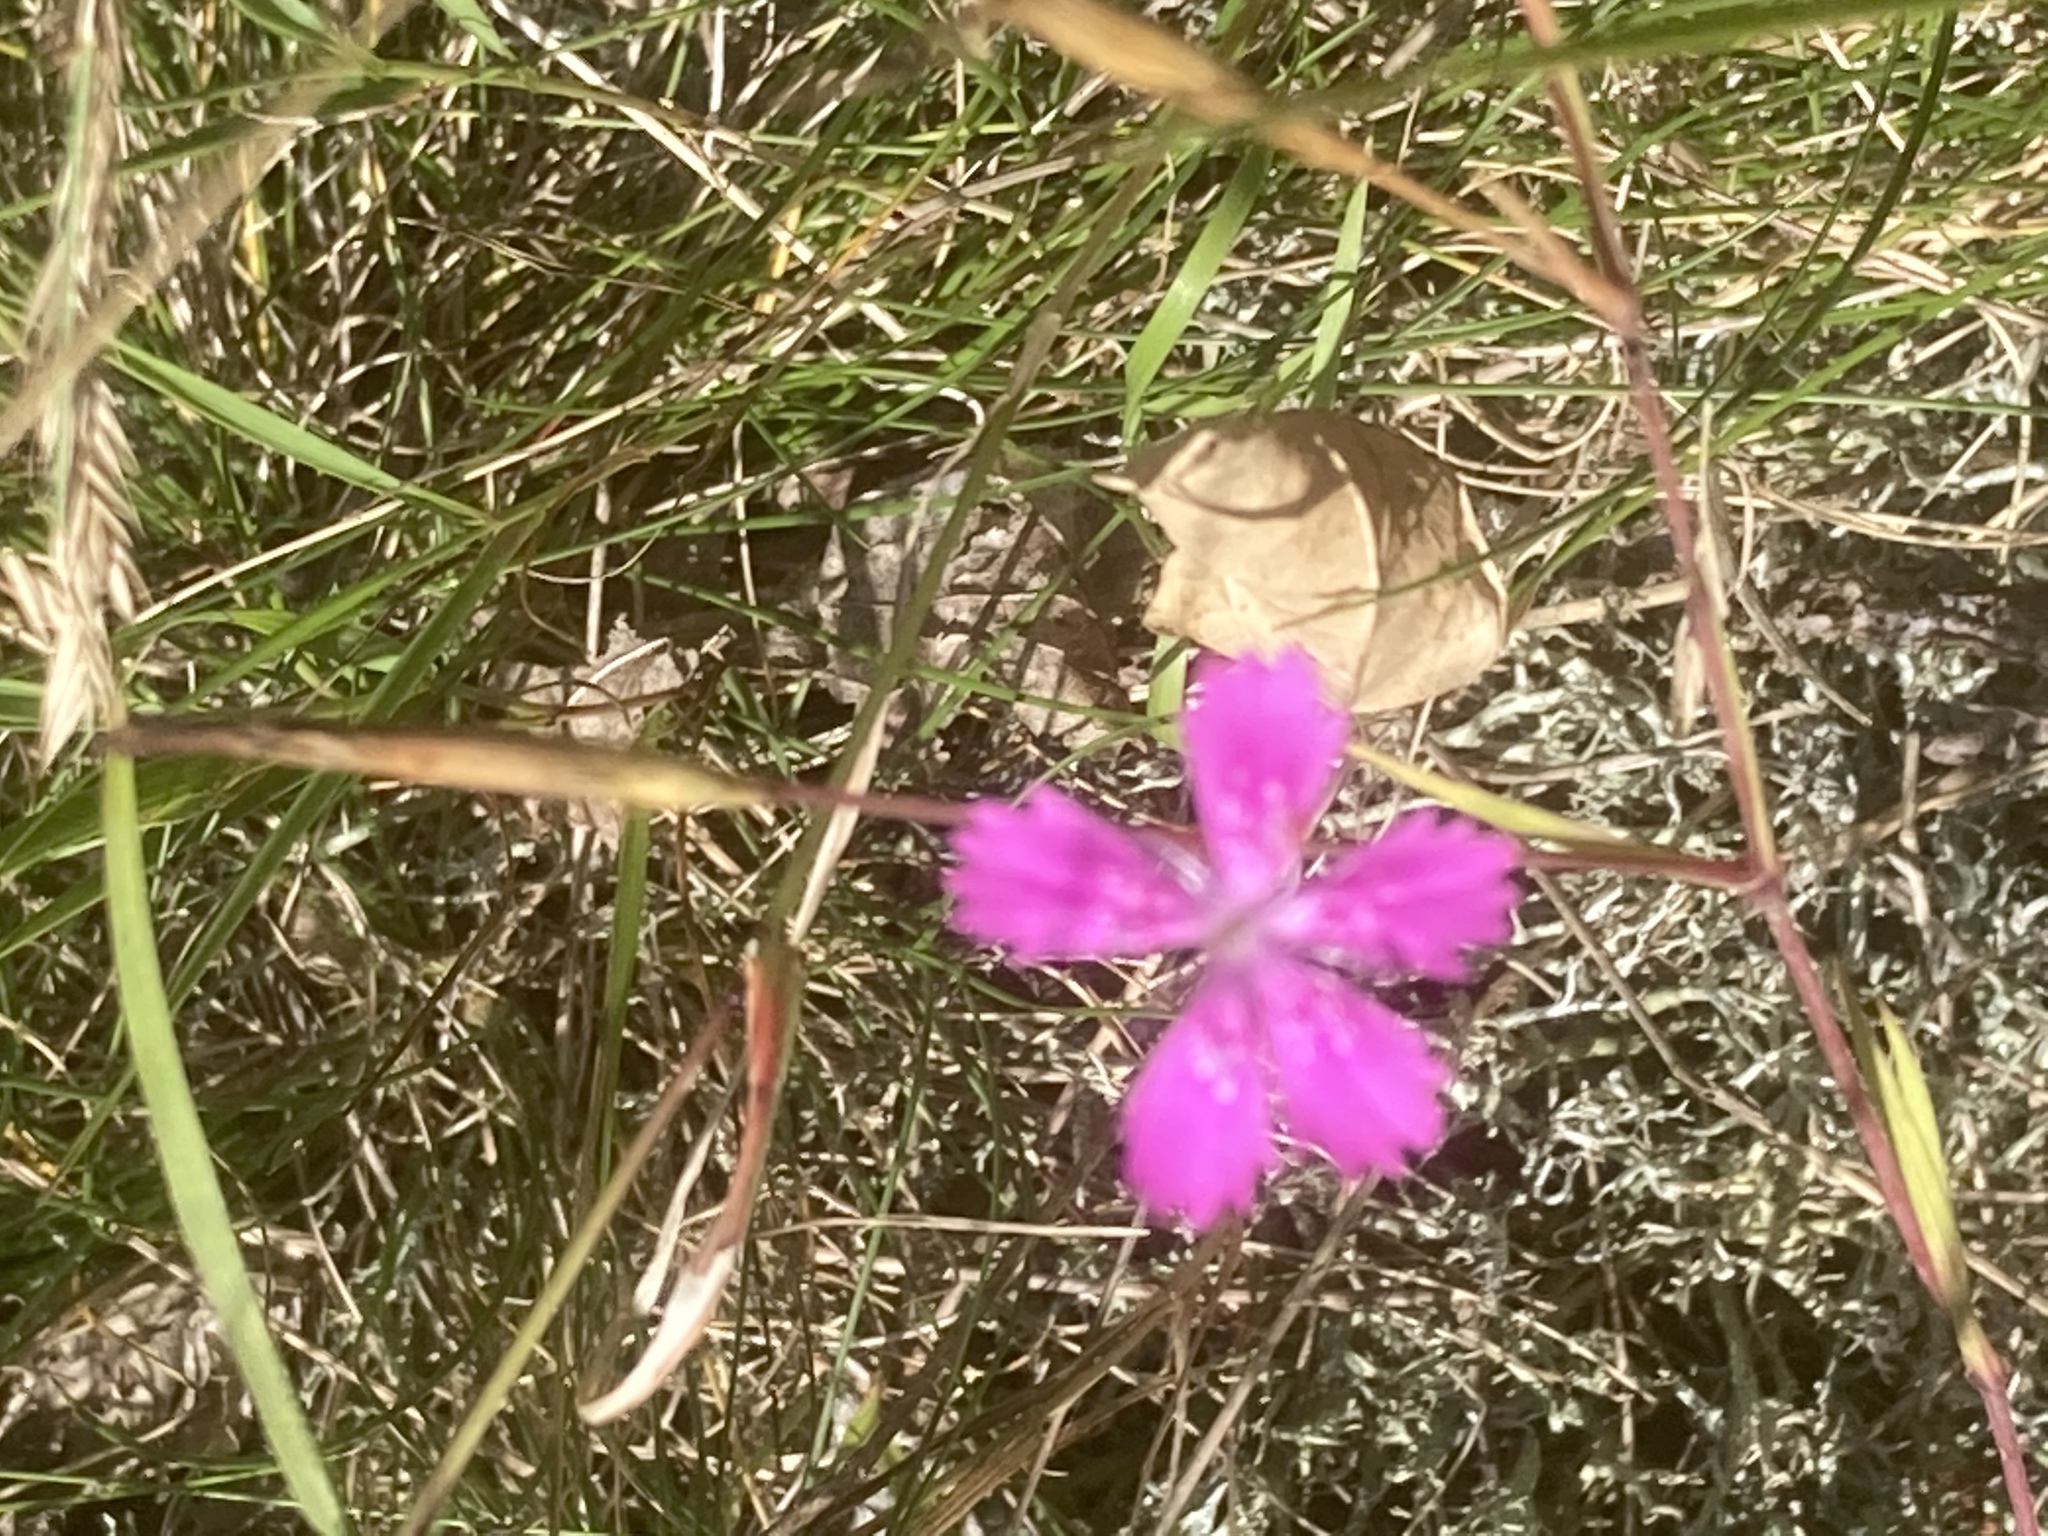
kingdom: Plantae
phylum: Tracheophyta
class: Magnoliopsida
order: Caryophyllales
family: Caryophyllaceae
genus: Dianthus
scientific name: Dianthus deltoides
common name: Maiden pink
